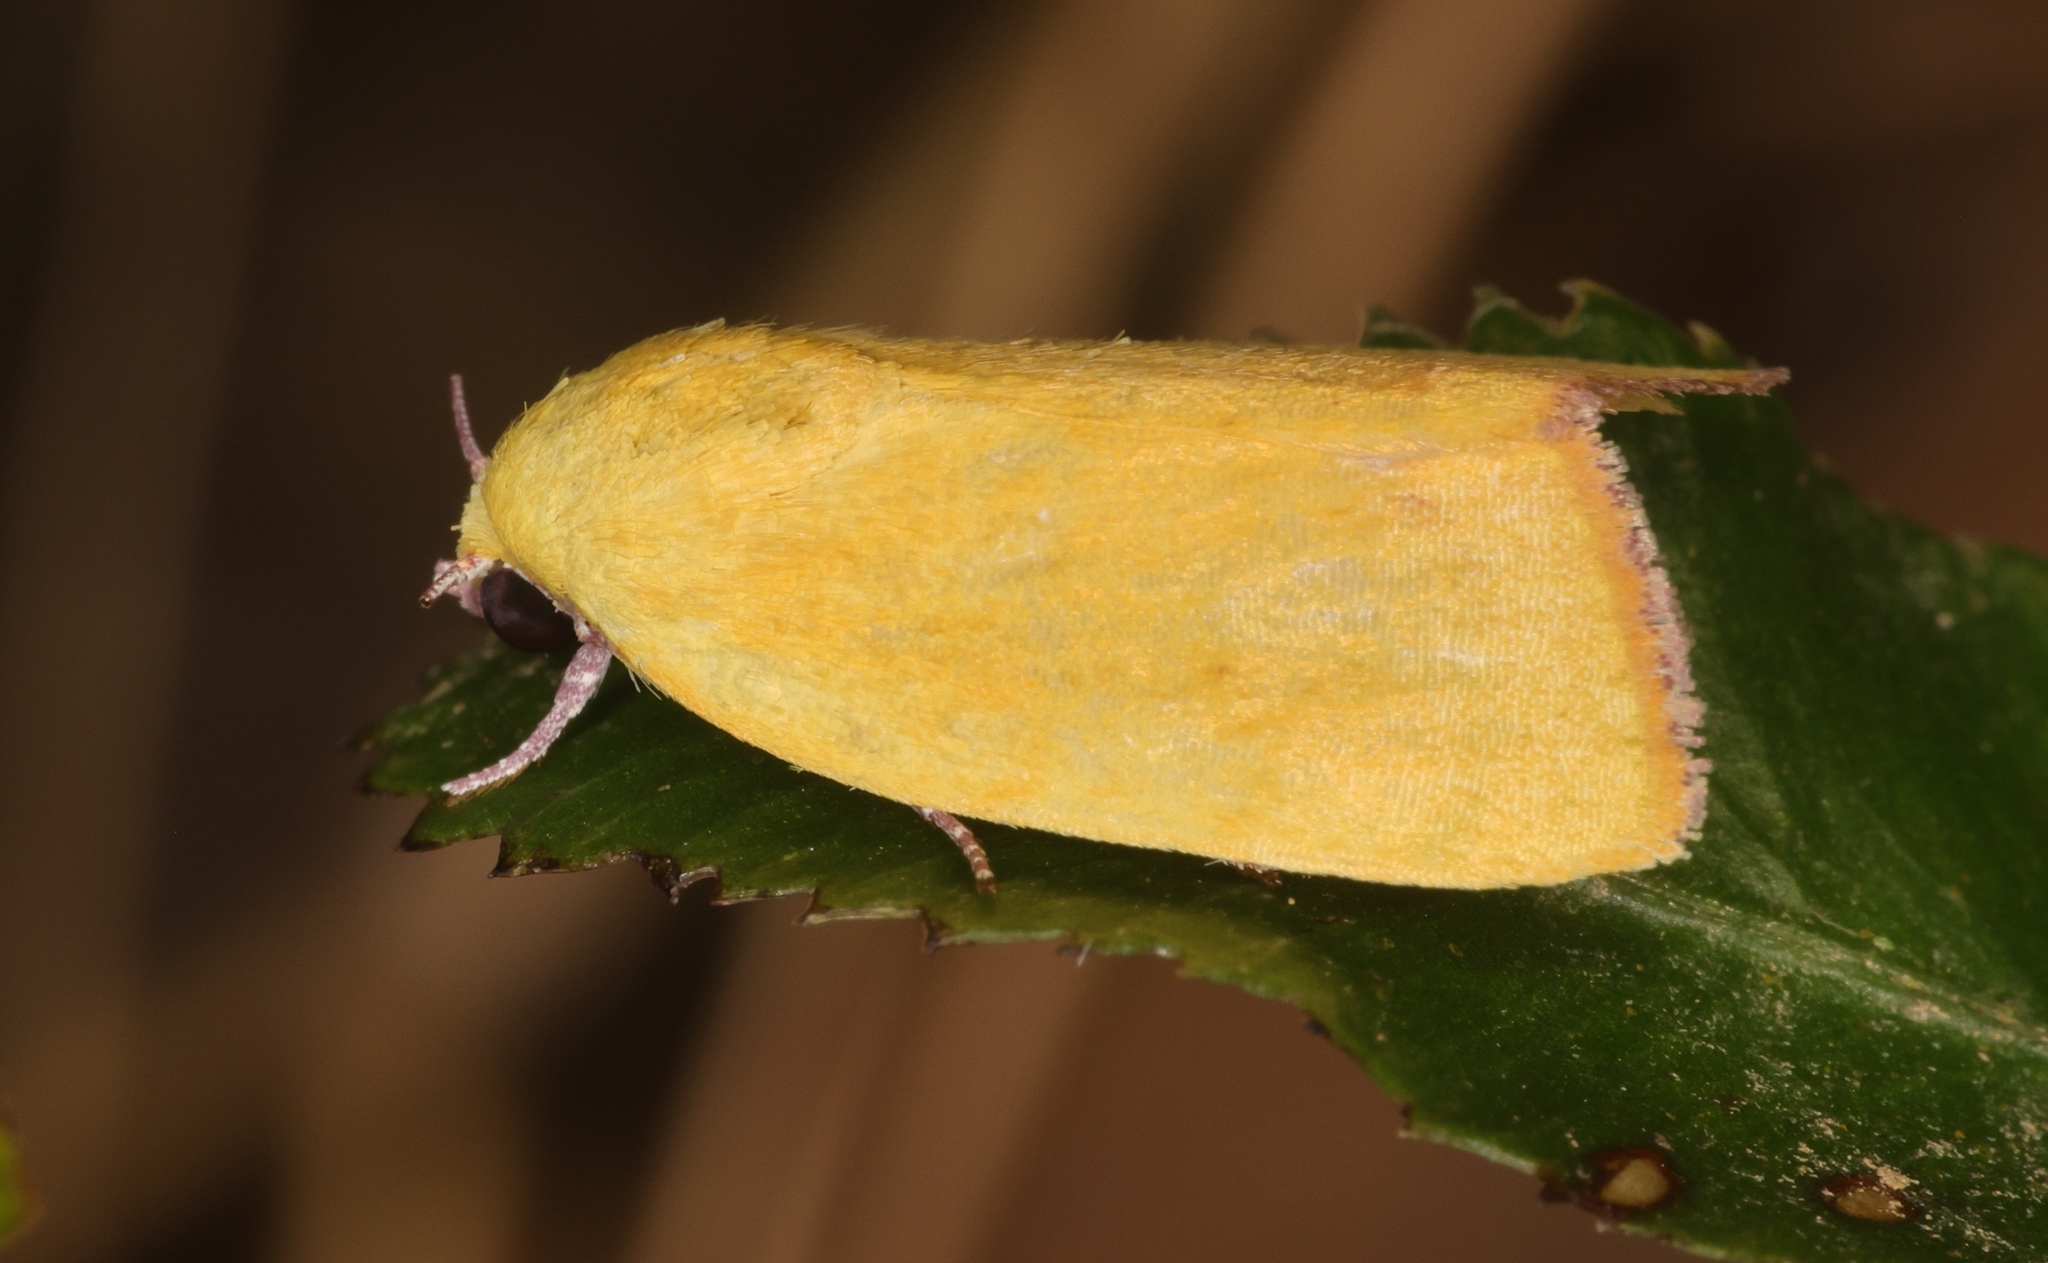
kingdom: Animalia
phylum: Arthropoda
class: Insecta
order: Lepidoptera
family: Nolidae
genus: Earias
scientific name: Earias luteolaria
